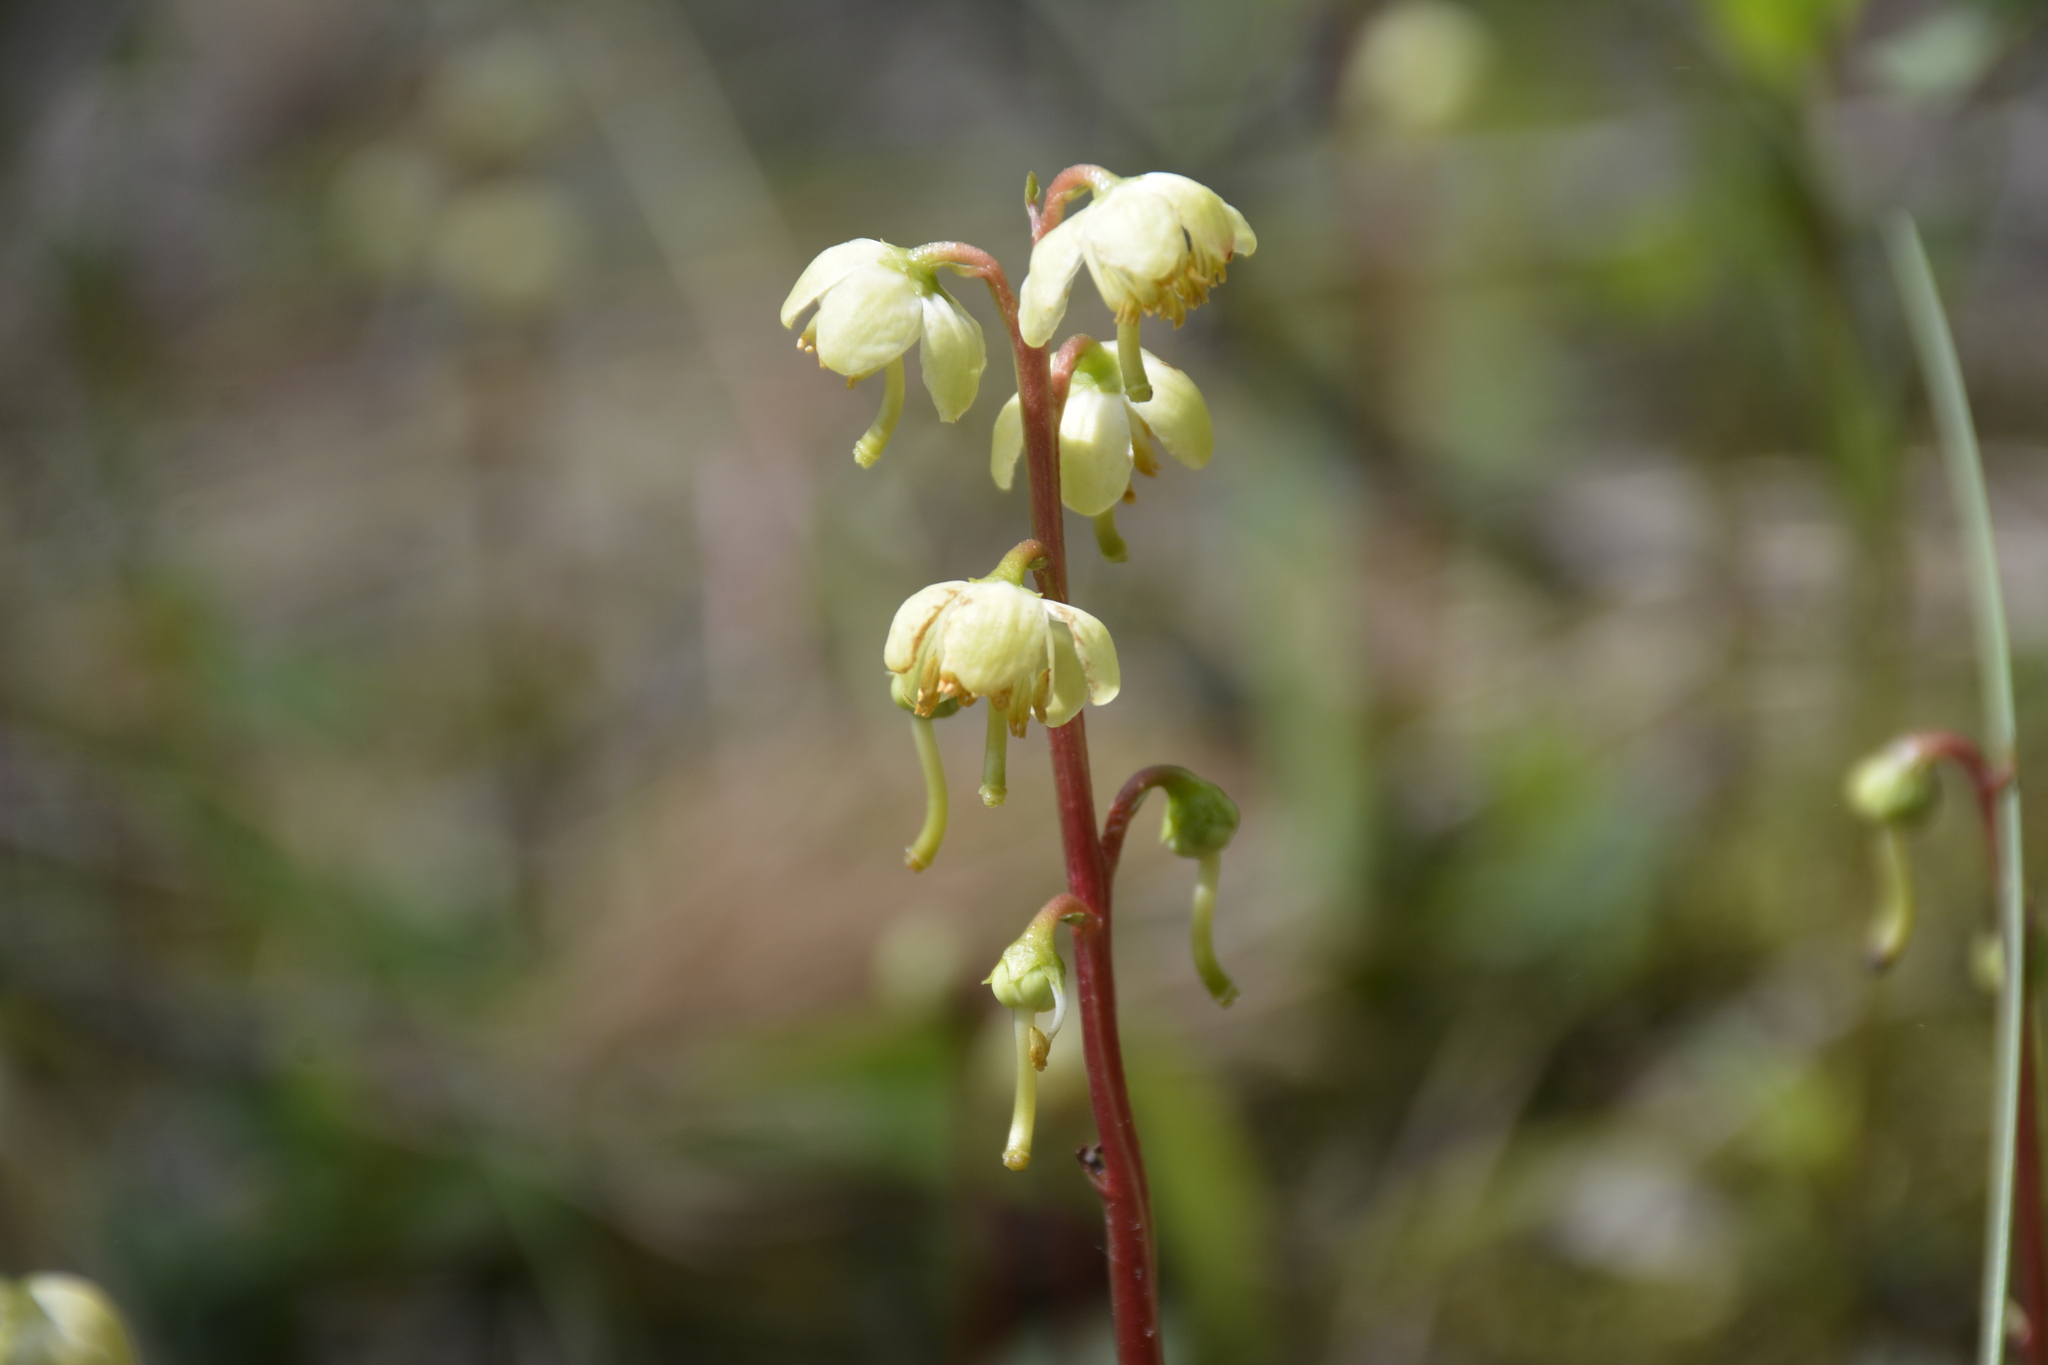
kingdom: Plantae
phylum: Tracheophyta
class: Magnoliopsida
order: Ericales
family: Ericaceae
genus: Pyrola
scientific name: Pyrola chlorantha
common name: Green wintergreen
